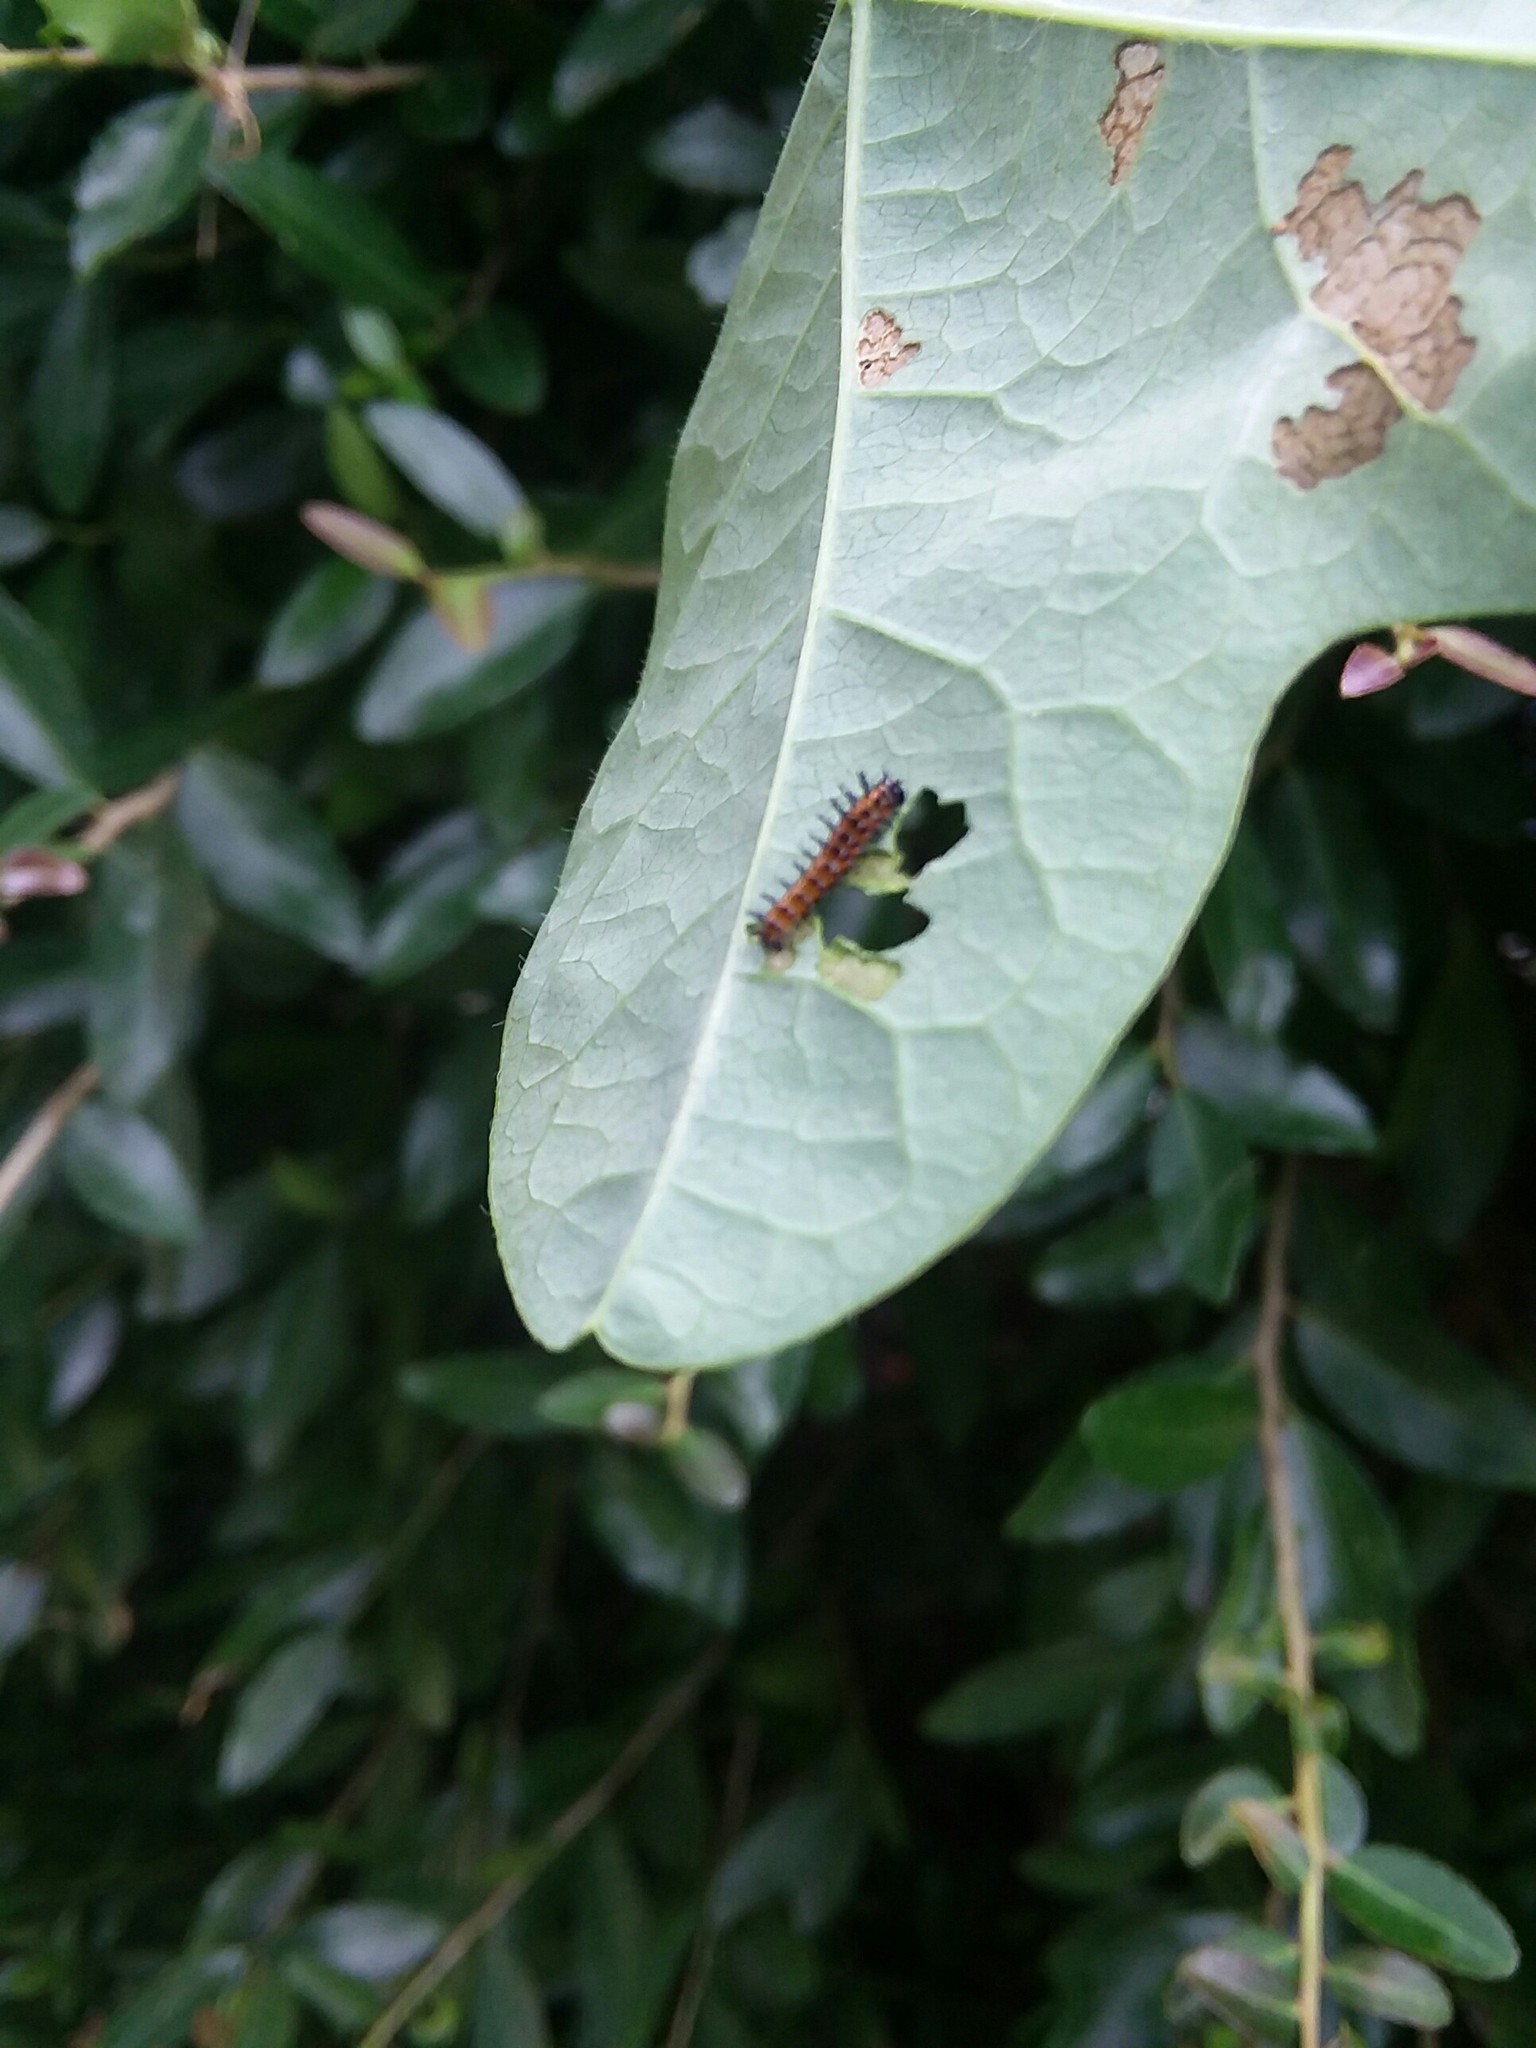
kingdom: Animalia
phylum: Arthropoda
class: Insecta
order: Lepidoptera
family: Nymphalidae
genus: Dione
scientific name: Dione vanillae
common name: Gulf fritillary
